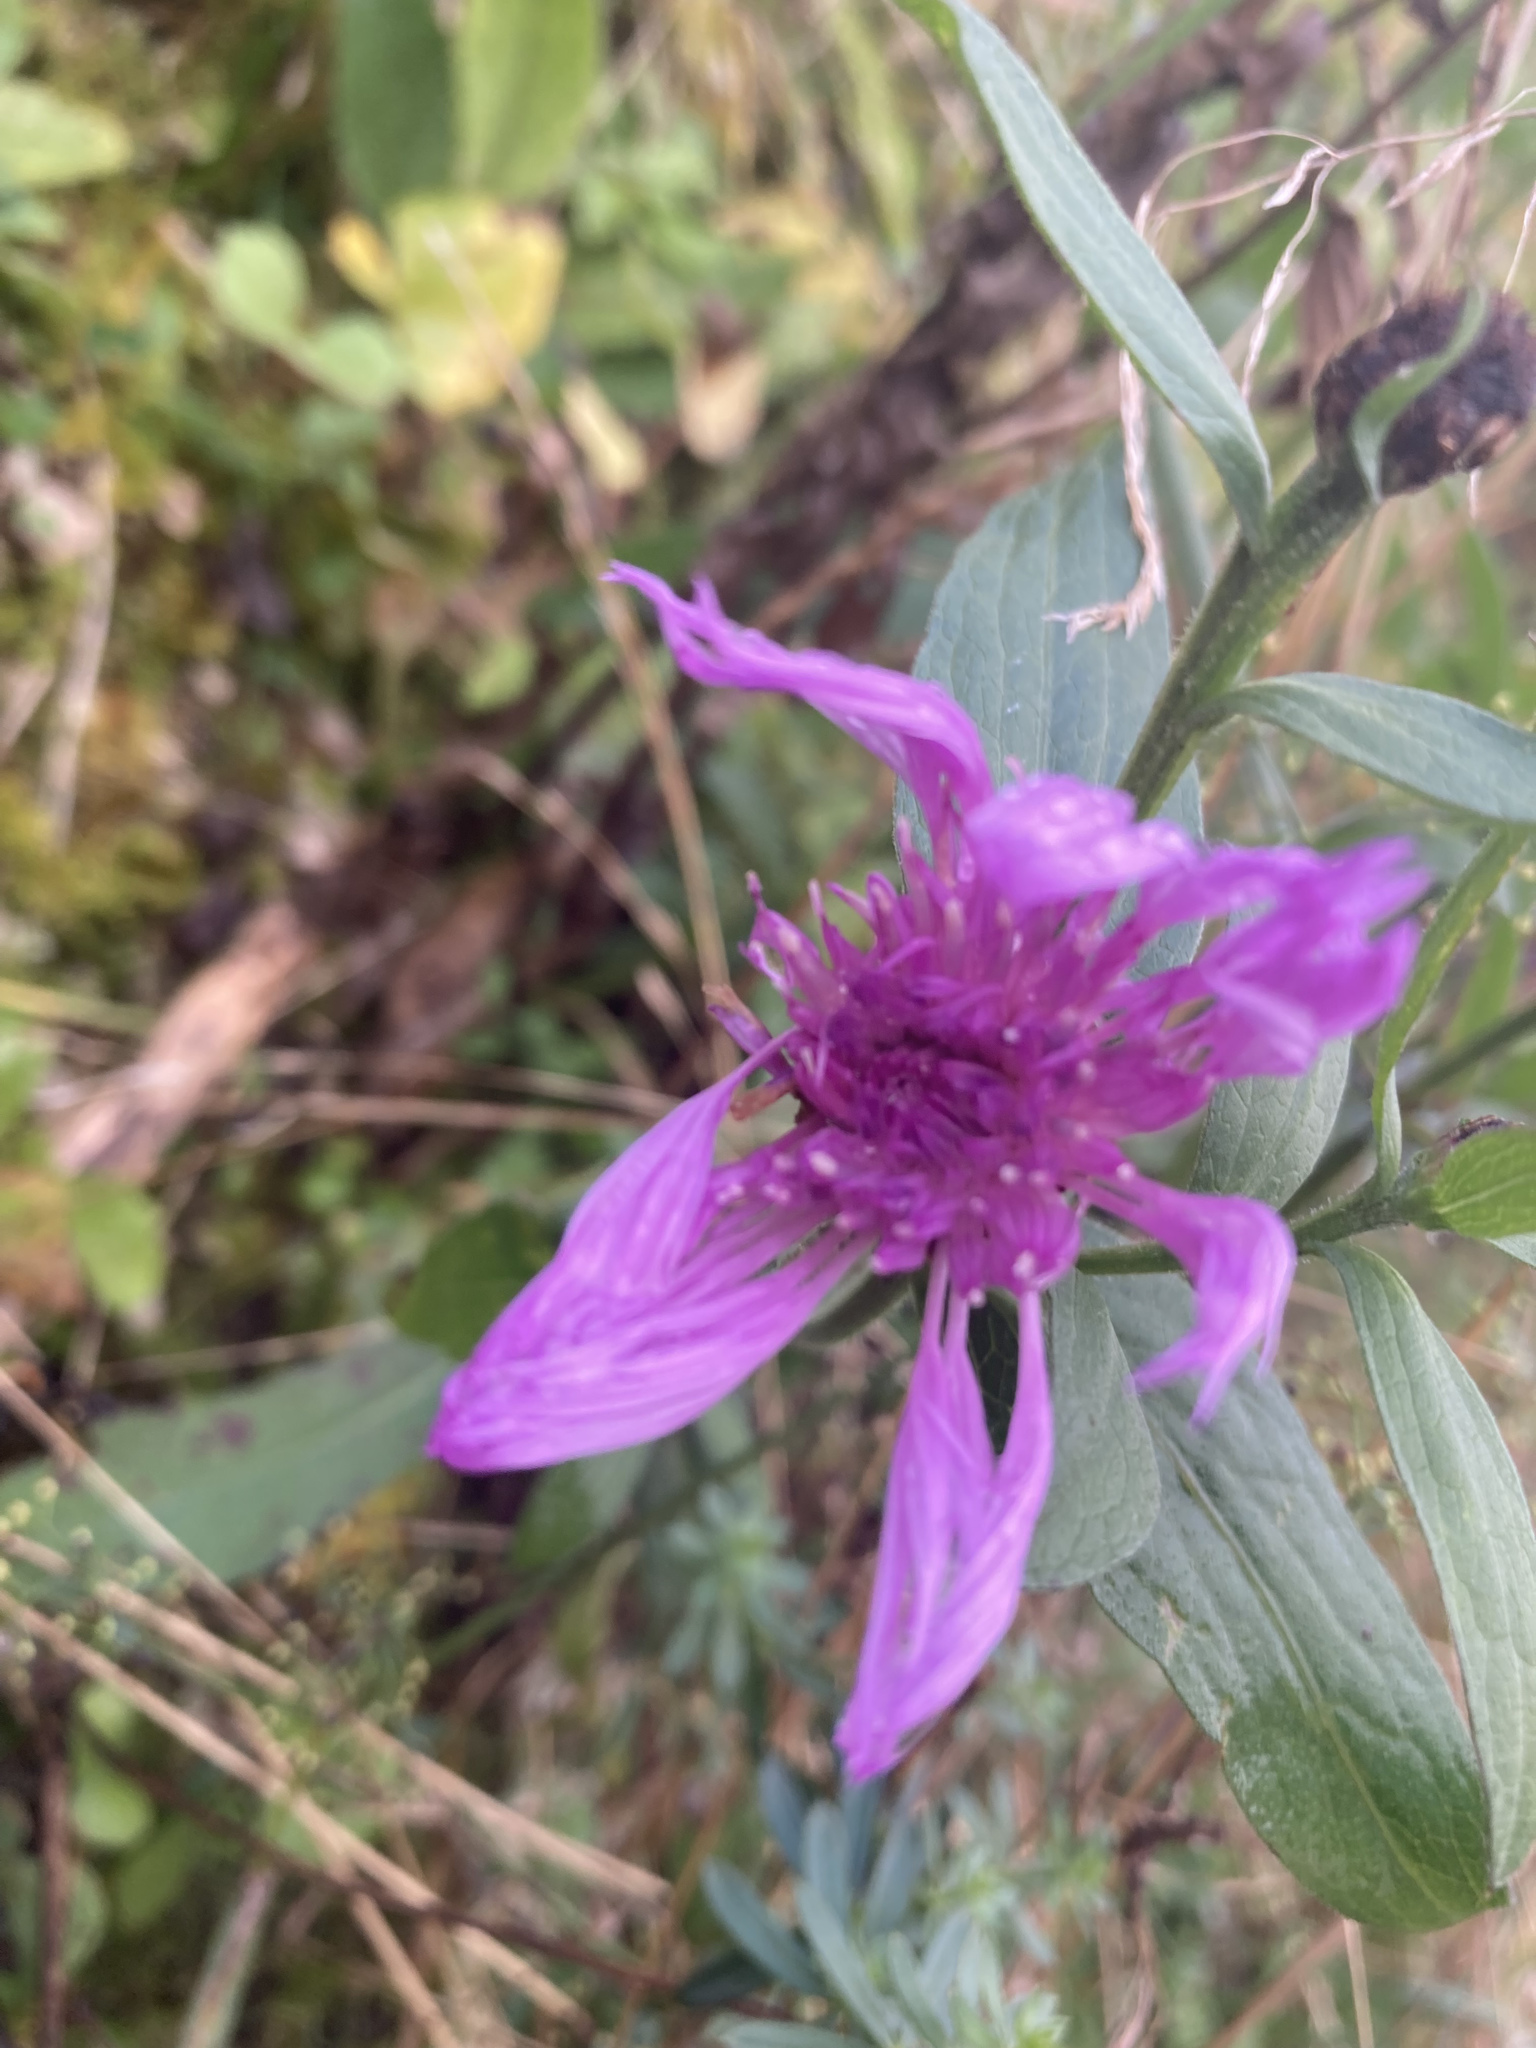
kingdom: Plantae
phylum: Tracheophyta
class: Magnoliopsida
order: Asterales
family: Asteraceae
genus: Centaurea
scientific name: Centaurea nigrescens
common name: Tyrol knapweed
